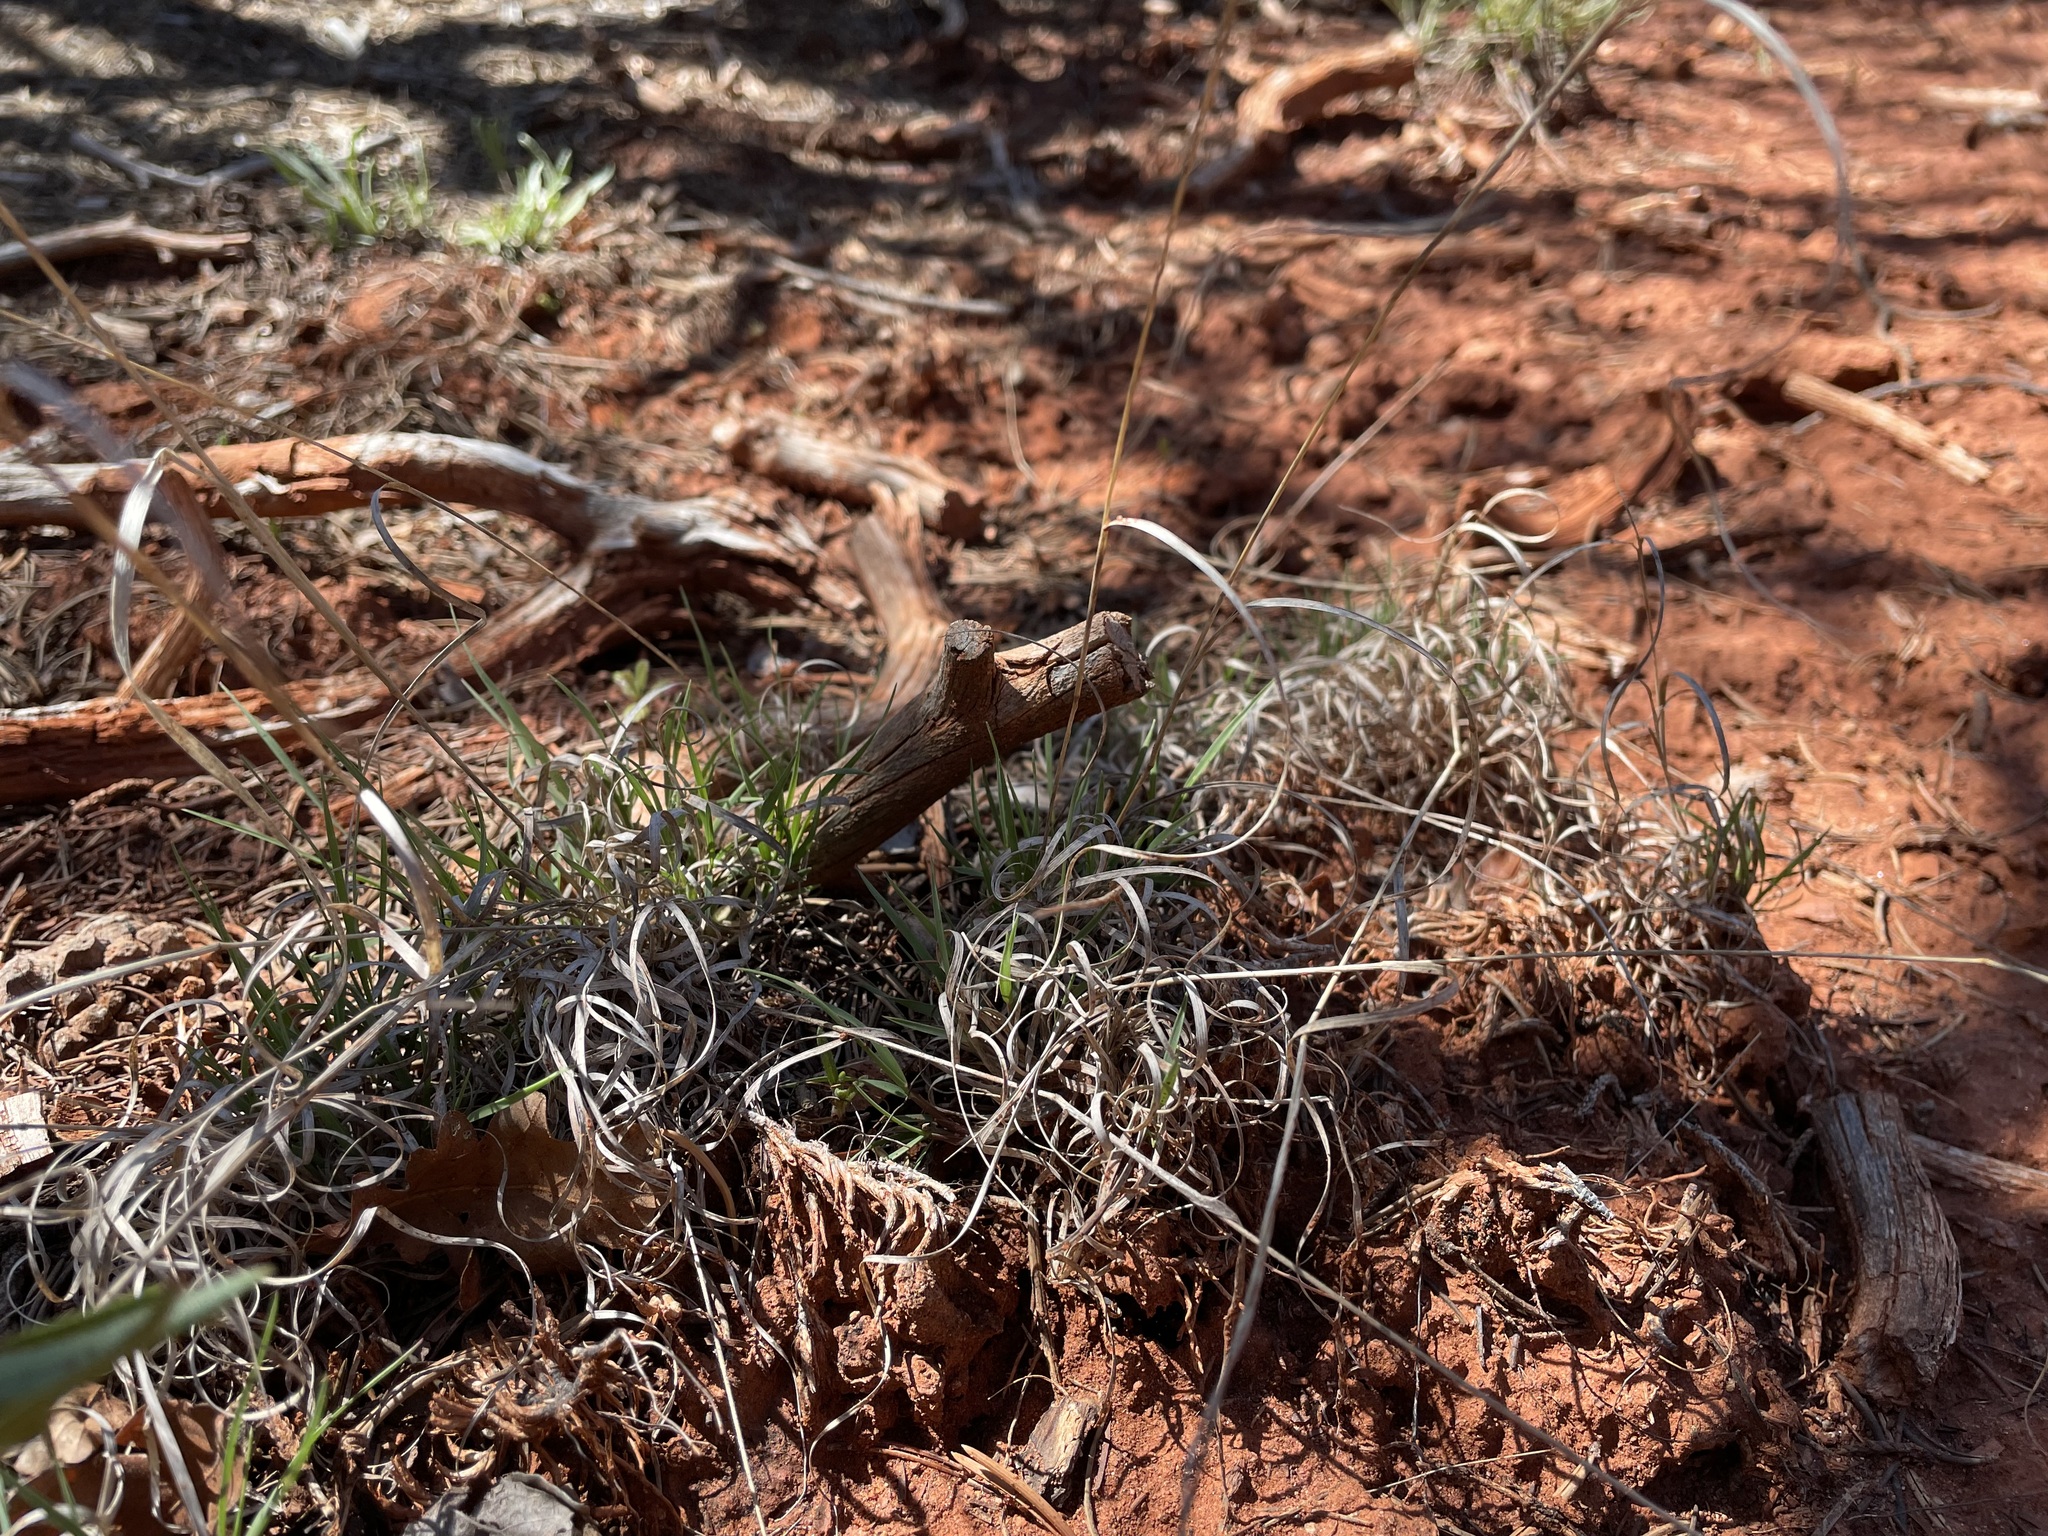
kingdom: Plantae
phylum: Tracheophyta
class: Liliopsida
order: Poales
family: Poaceae
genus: Bouteloua
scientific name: Bouteloua gracilis
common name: Blue grama
